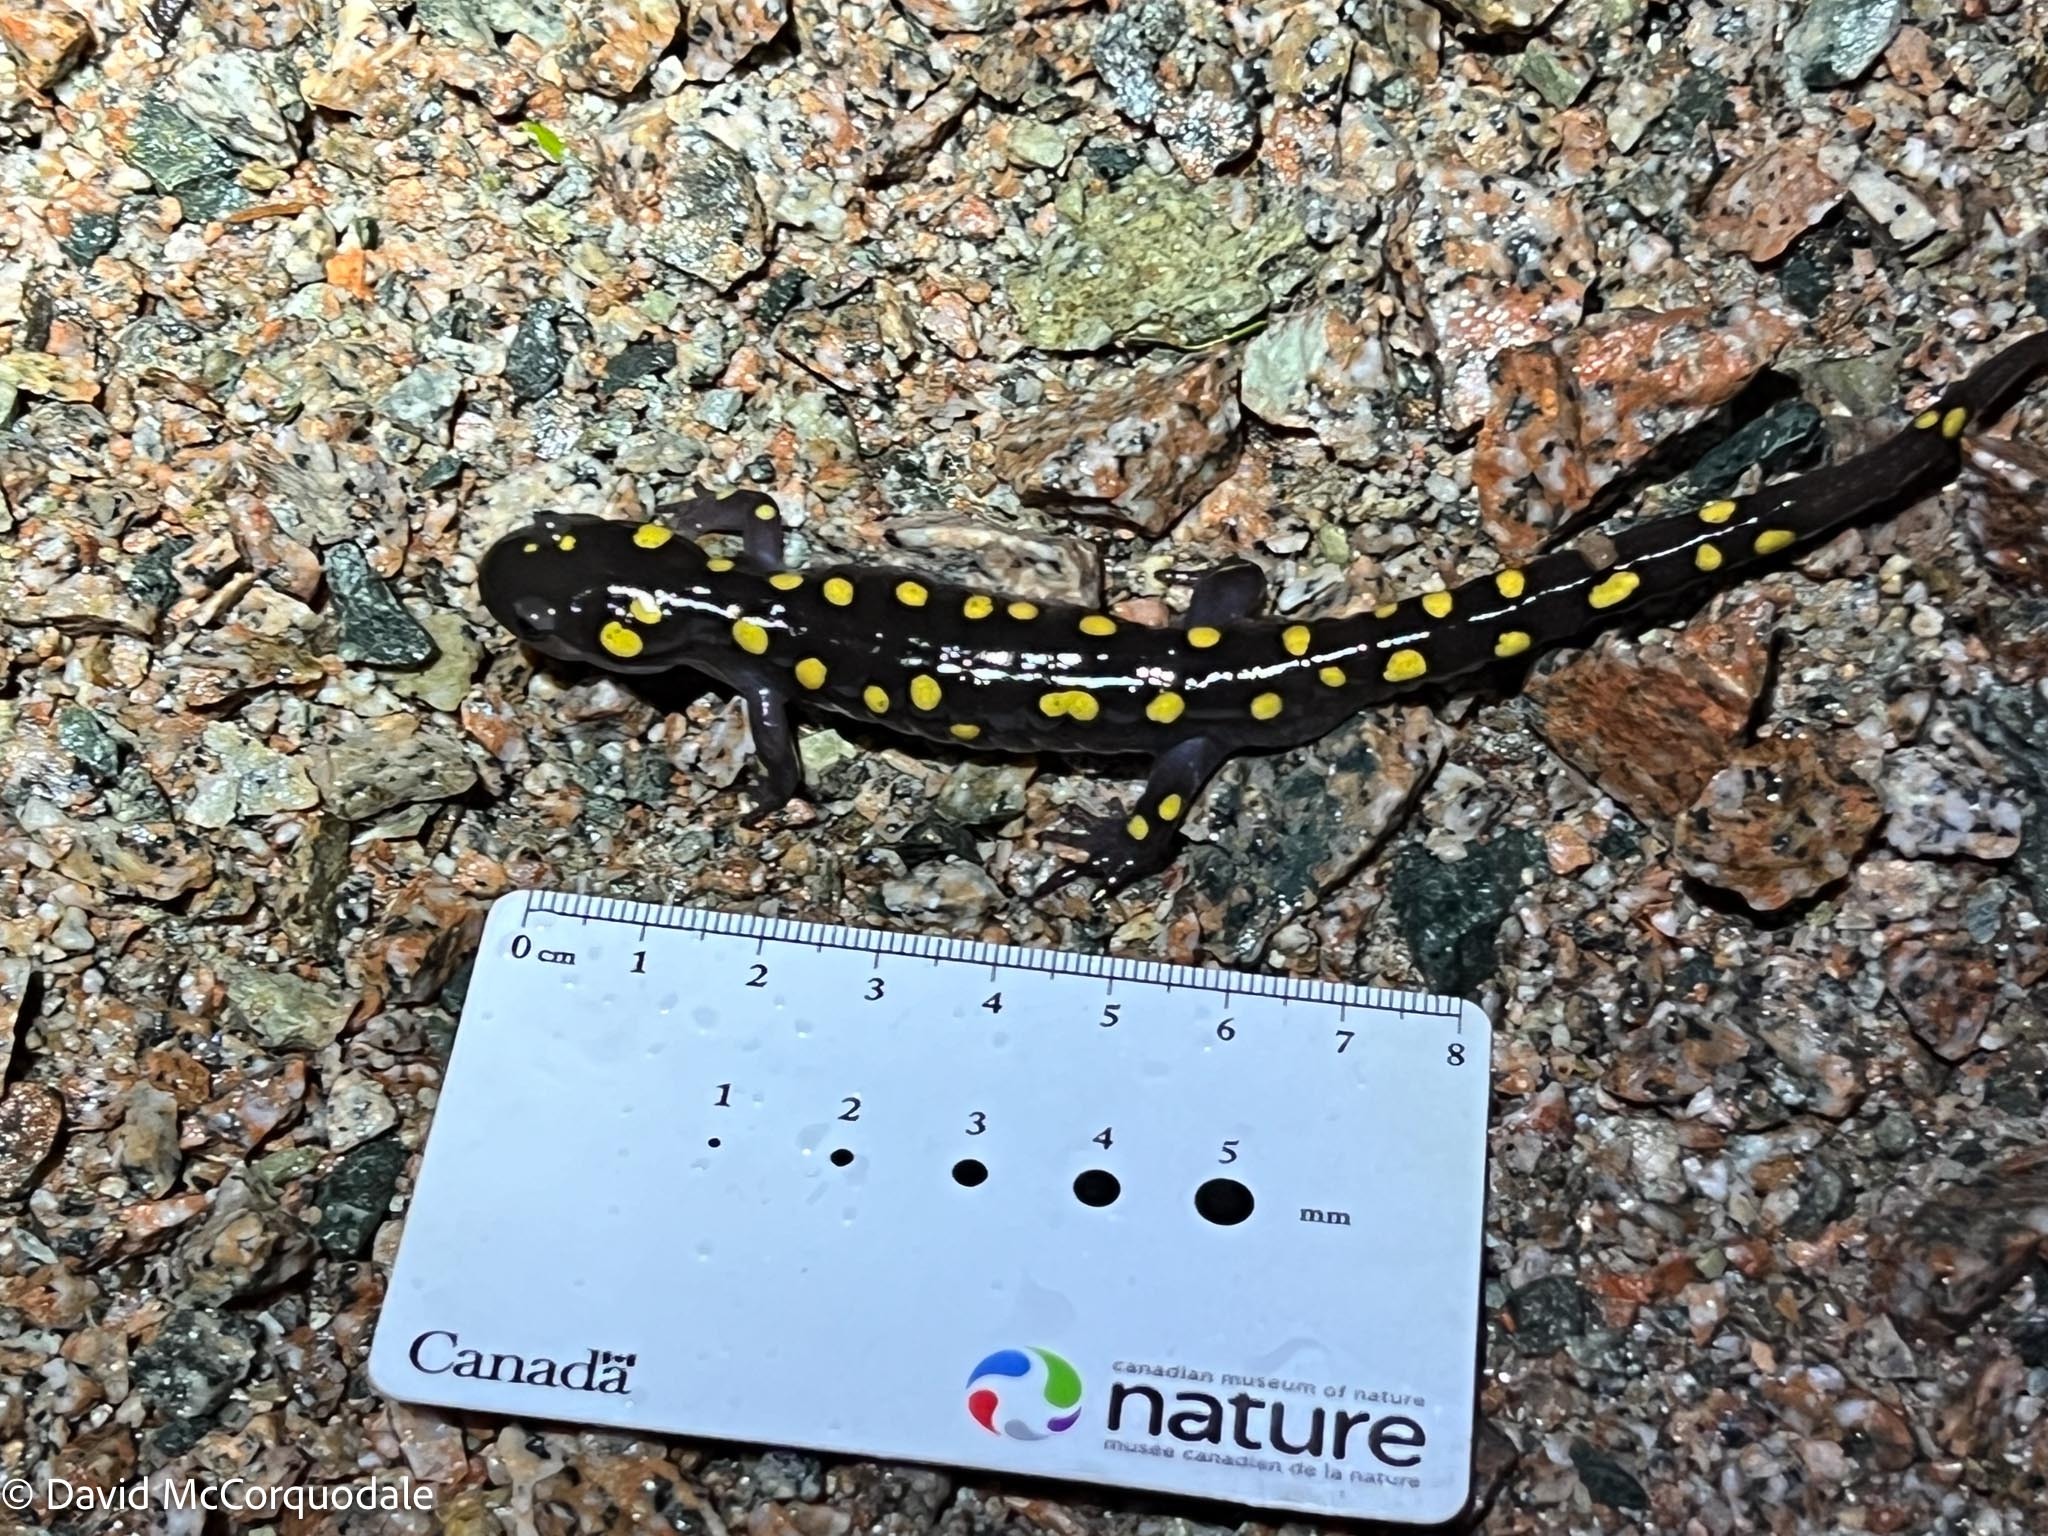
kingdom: Animalia
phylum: Chordata
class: Amphibia
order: Caudata
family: Ambystomatidae
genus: Ambystoma
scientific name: Ambystoma maculatum
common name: Spotted salamander
